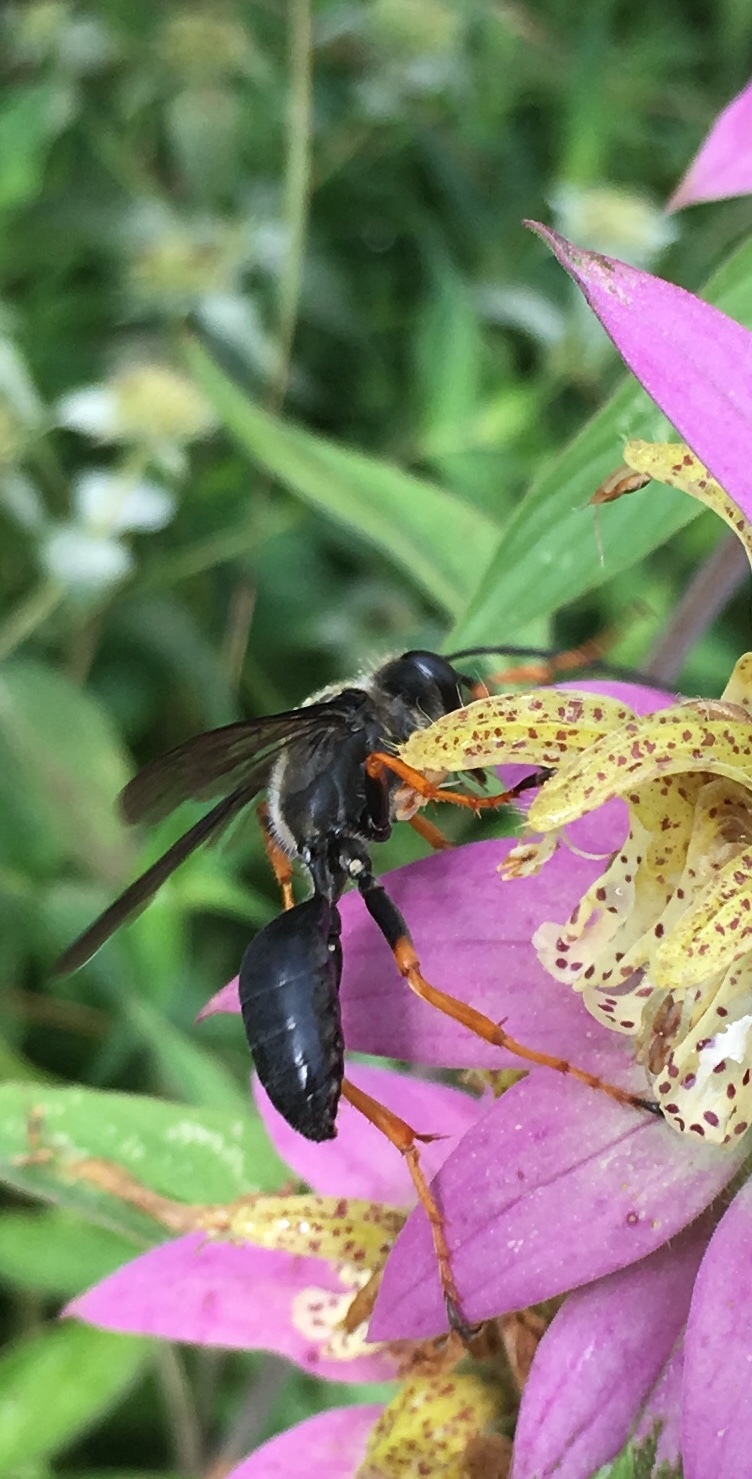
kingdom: Animalia
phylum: Arthropoda
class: Insecta
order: Hymenoptera
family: Sphecidae
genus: Sphex
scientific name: Sphex nudus
